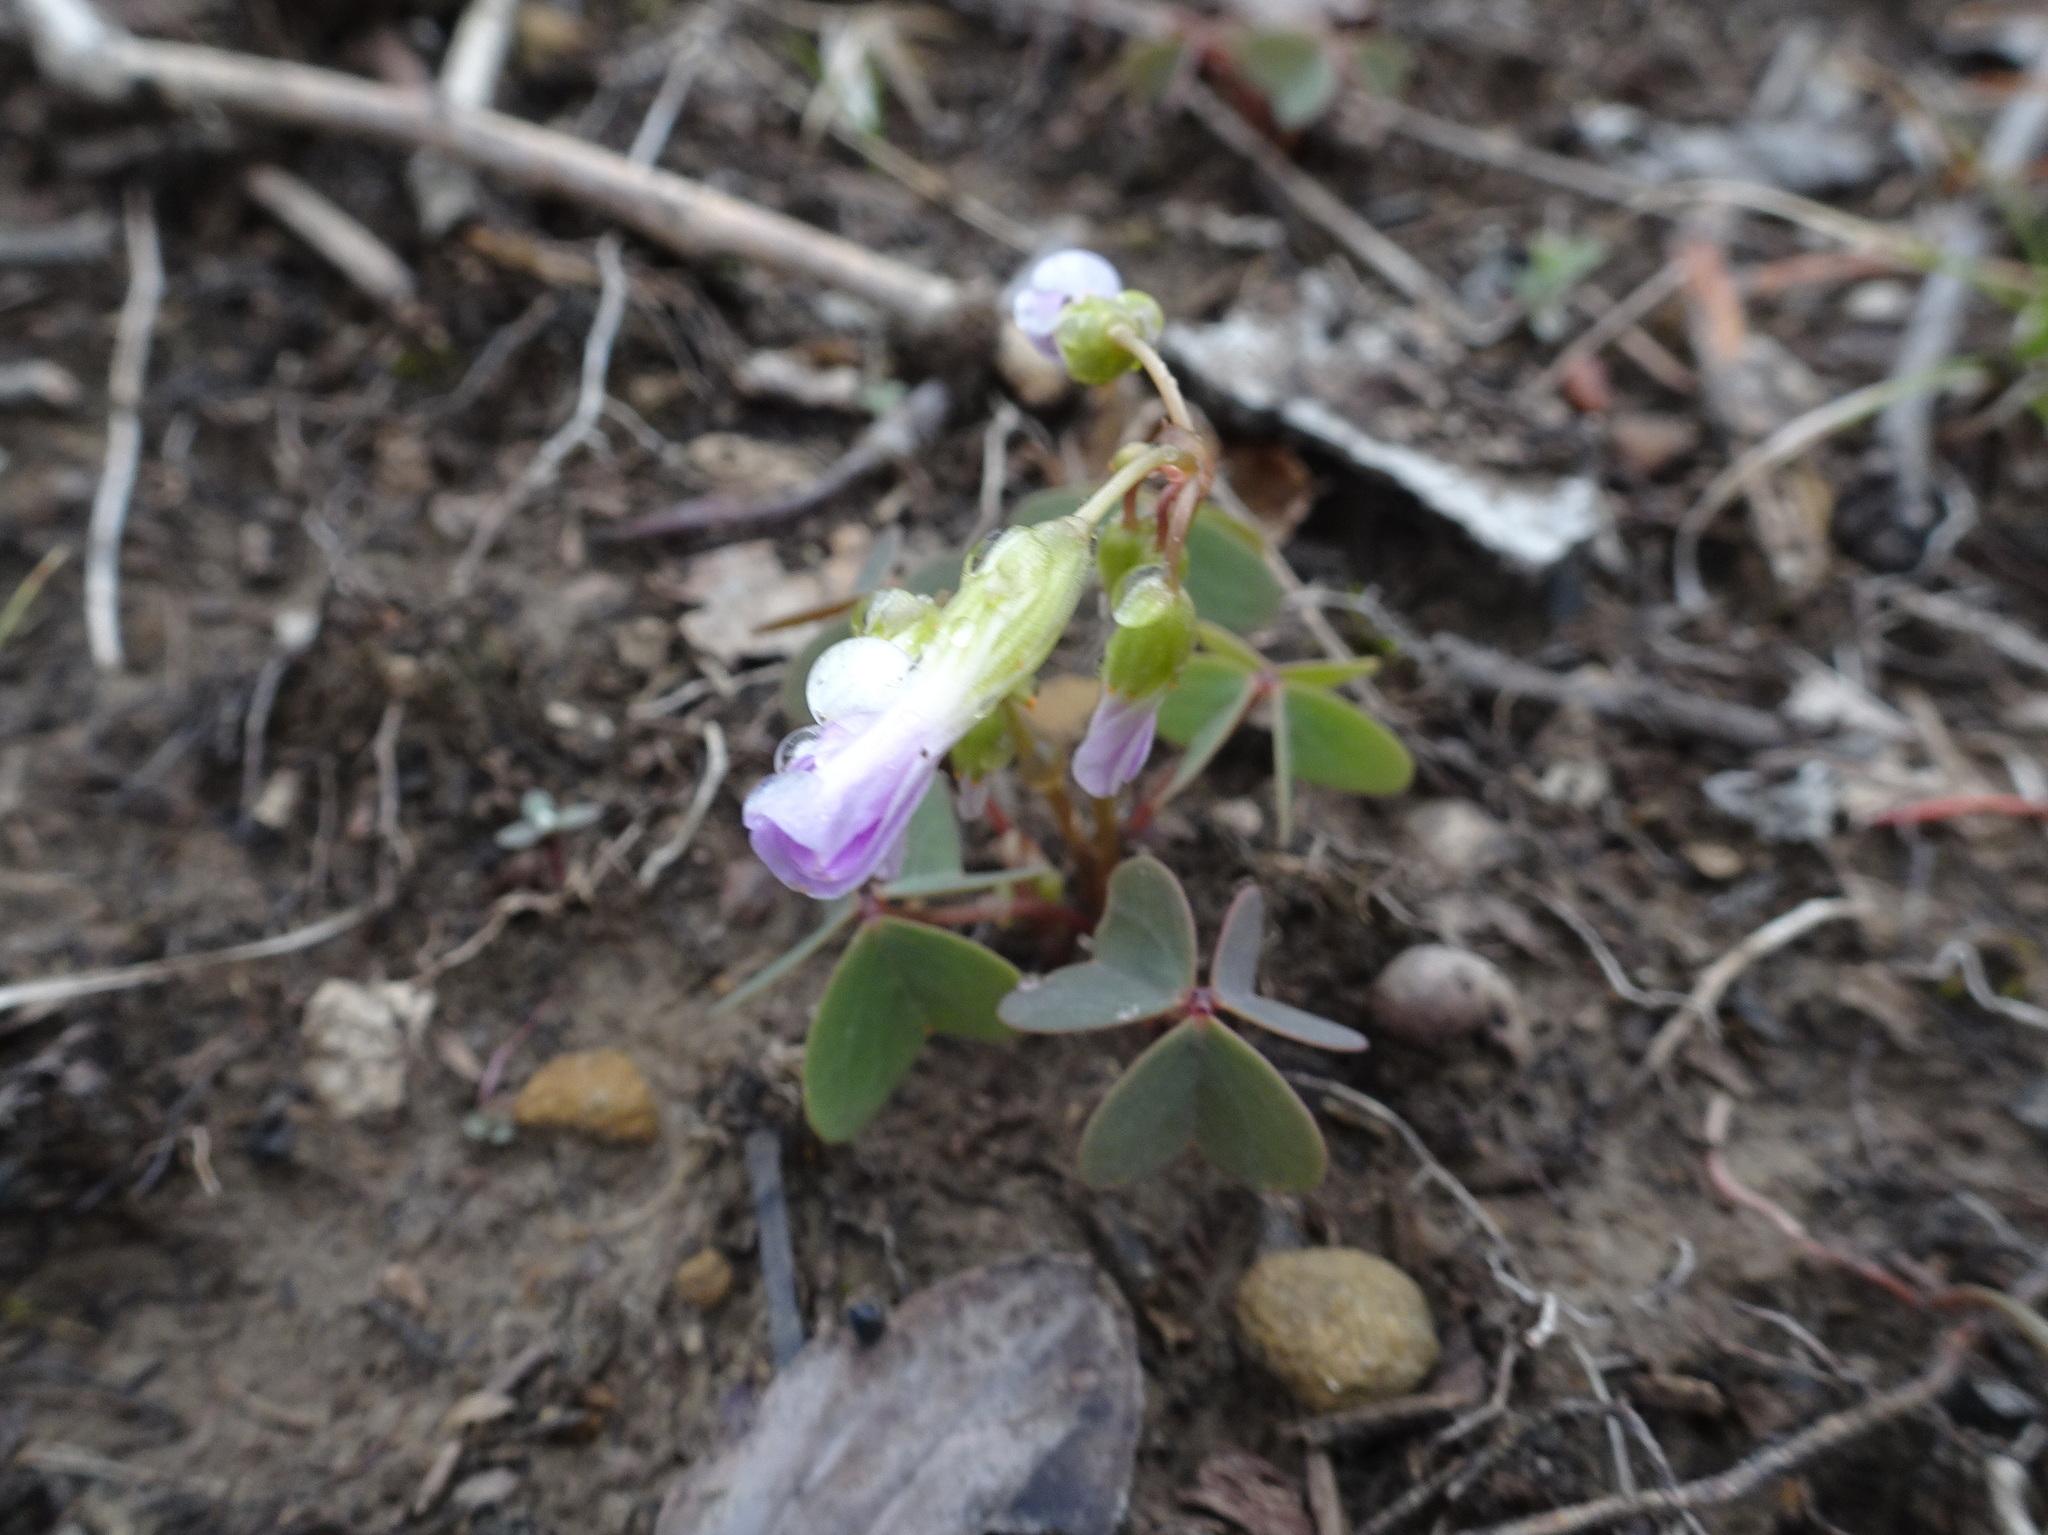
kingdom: Plantae
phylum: Tracheophyta
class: Magnoliopsida
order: Oxalidales
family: Oxalidaceae
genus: Oxalis
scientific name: Oxalis violacea
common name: Violet wood-sorrel
